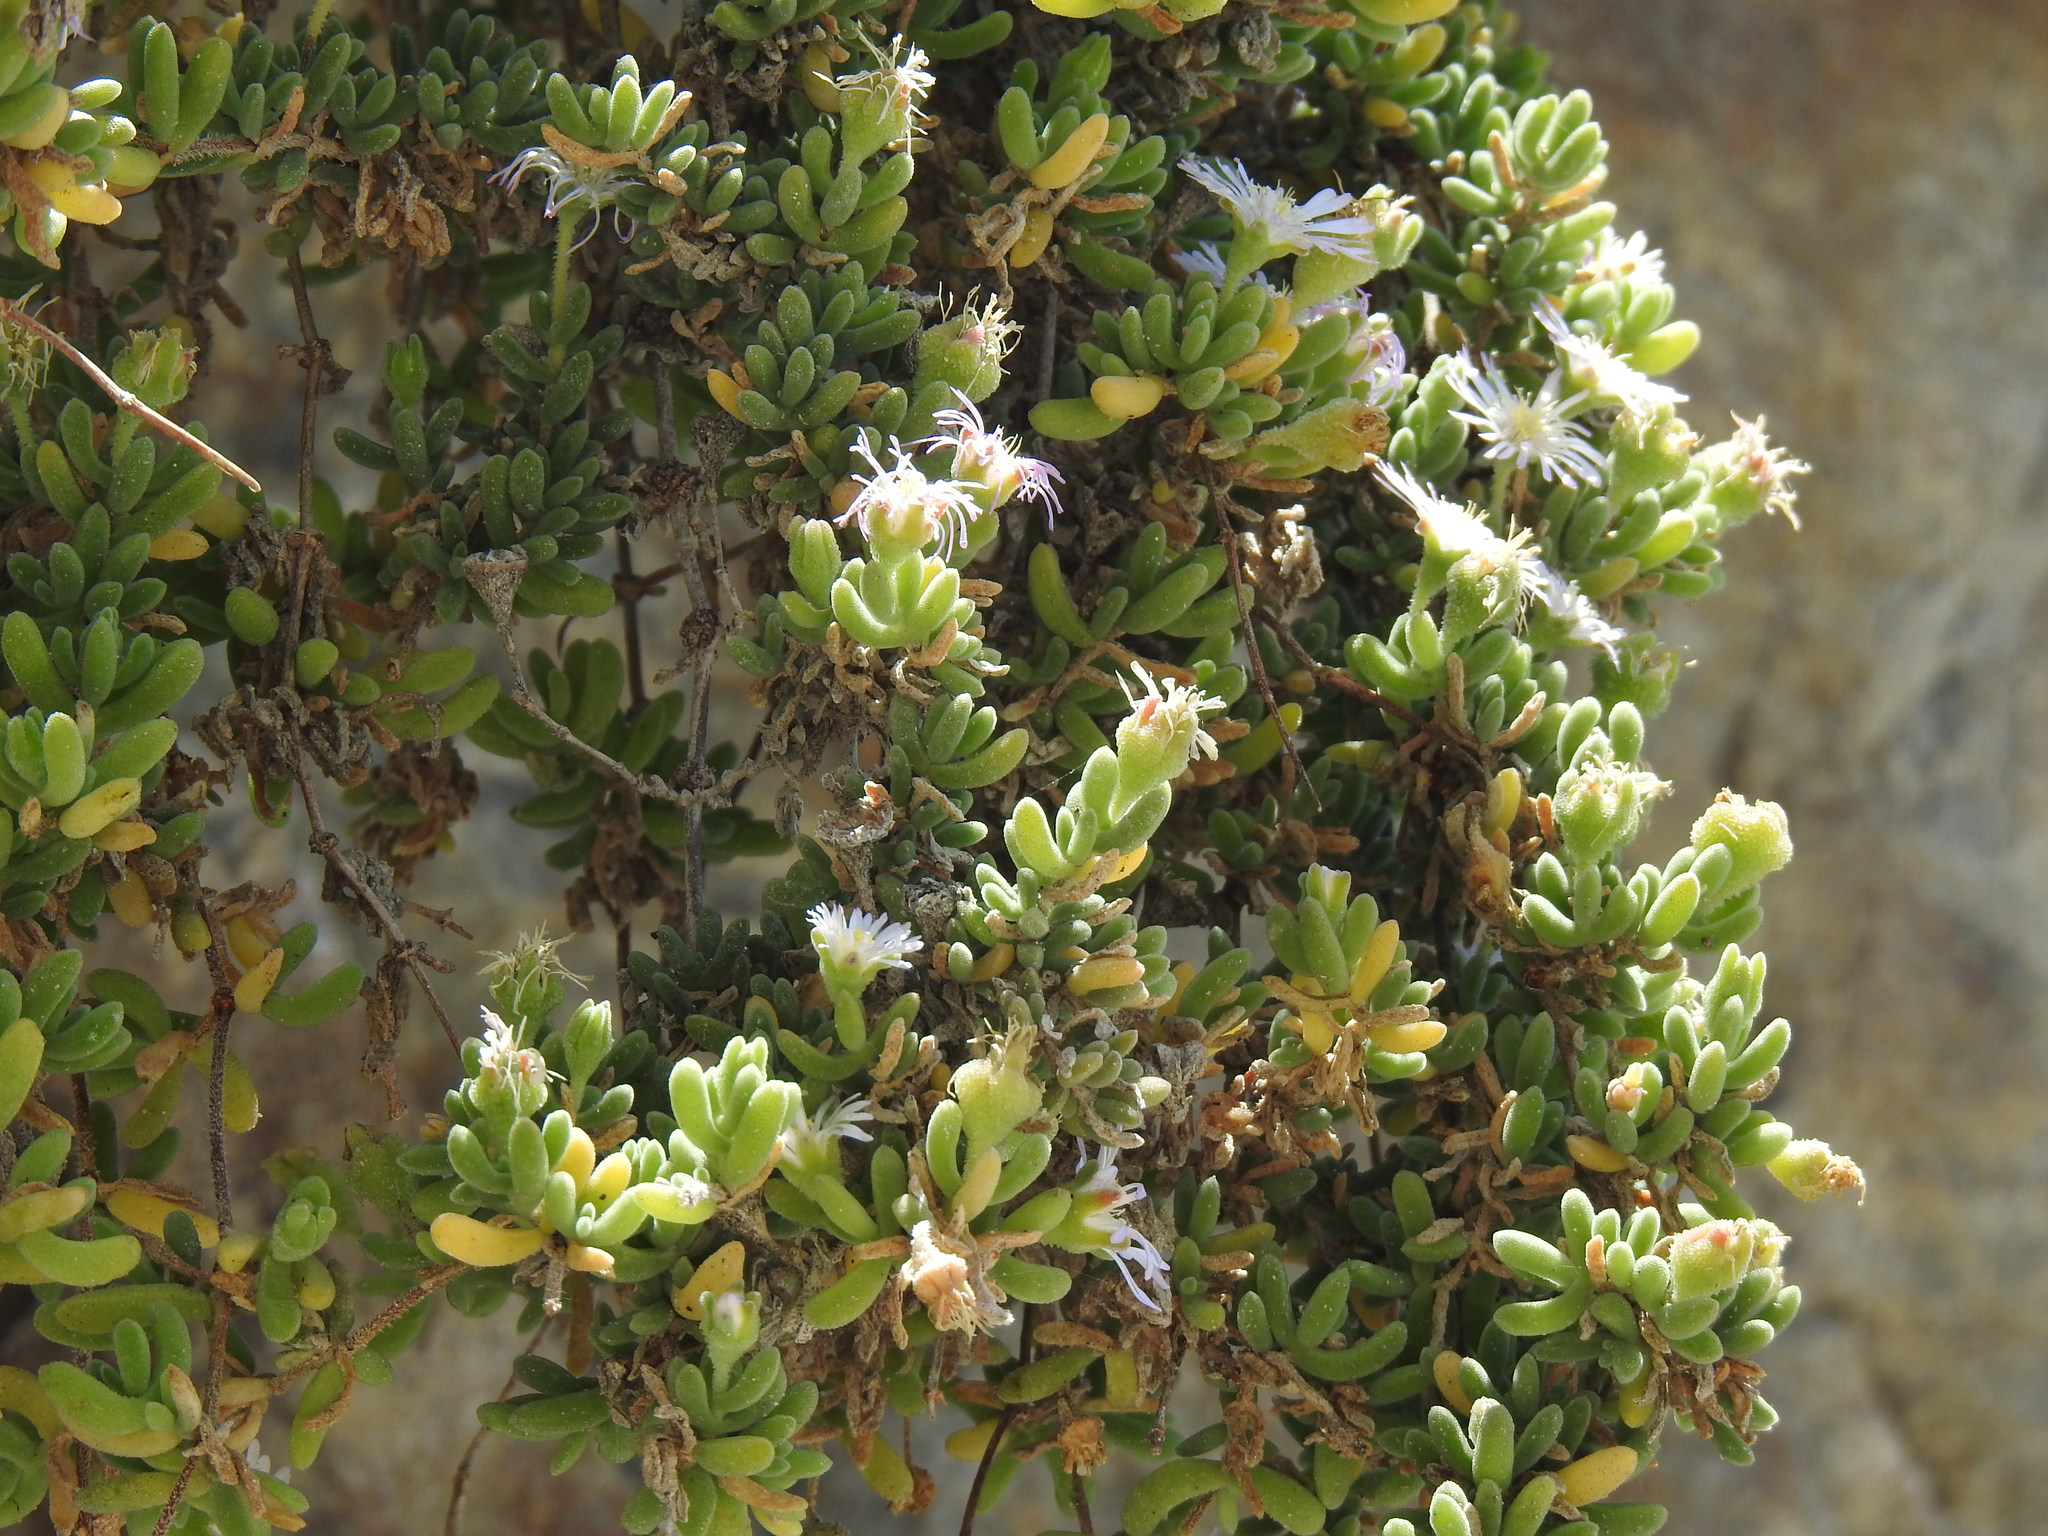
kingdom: Plantae
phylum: Tracheophyta
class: Magnoliopsida
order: Caryophyllales
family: Aizoaceae
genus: Drosanthemum
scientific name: Drosanthemum candens
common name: Rodondo-creeper
